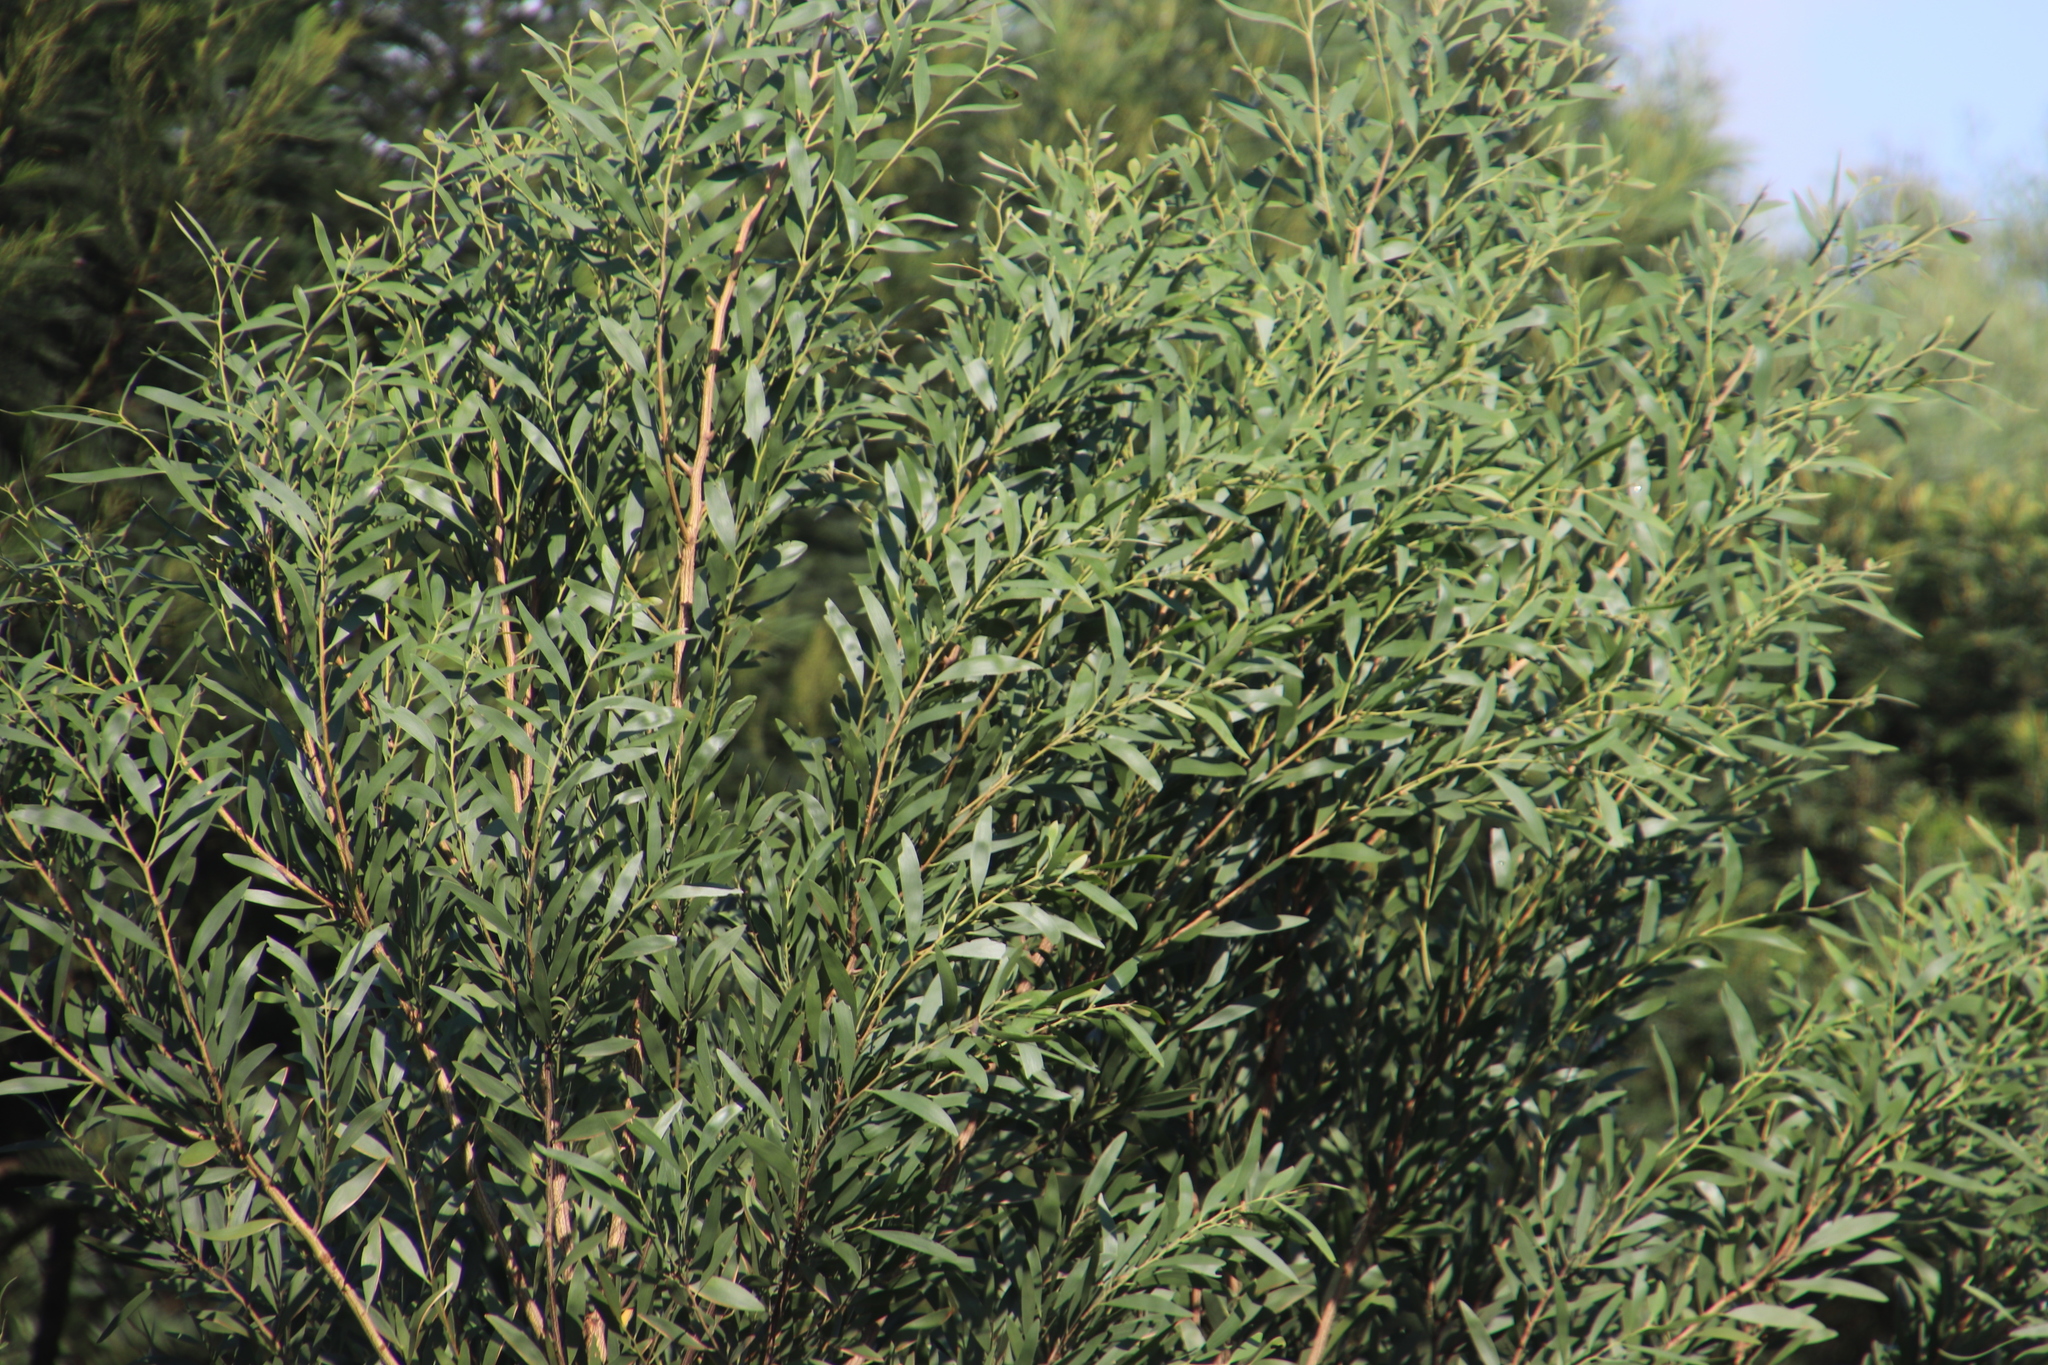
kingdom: Plantae
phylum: Tracheophyta
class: Magnoliopsida
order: Fabales
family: Fabaceae
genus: Acacia
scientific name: Acacia melanoxylon
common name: Blackwood
